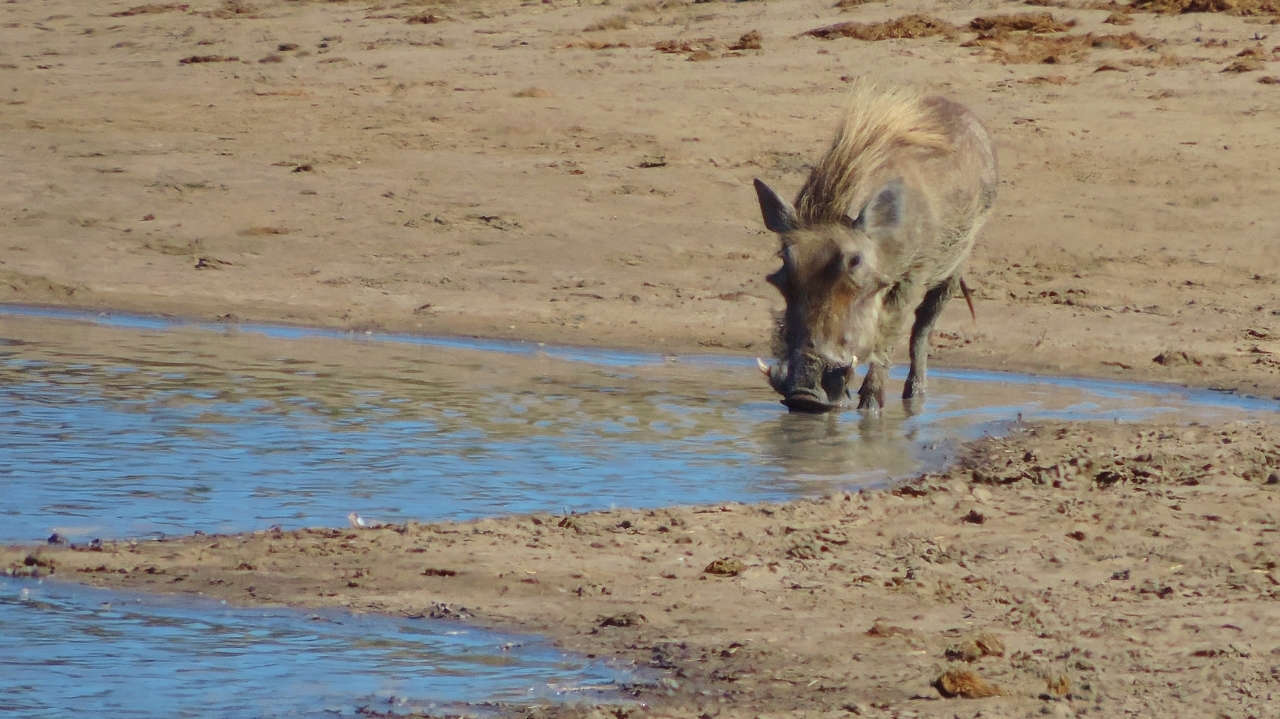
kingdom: Animalia
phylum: Chordata
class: Mammalia
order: Artiodactyla
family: Suidae
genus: Phacochoerus
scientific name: Phacochoerus africanus
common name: Common warthog
